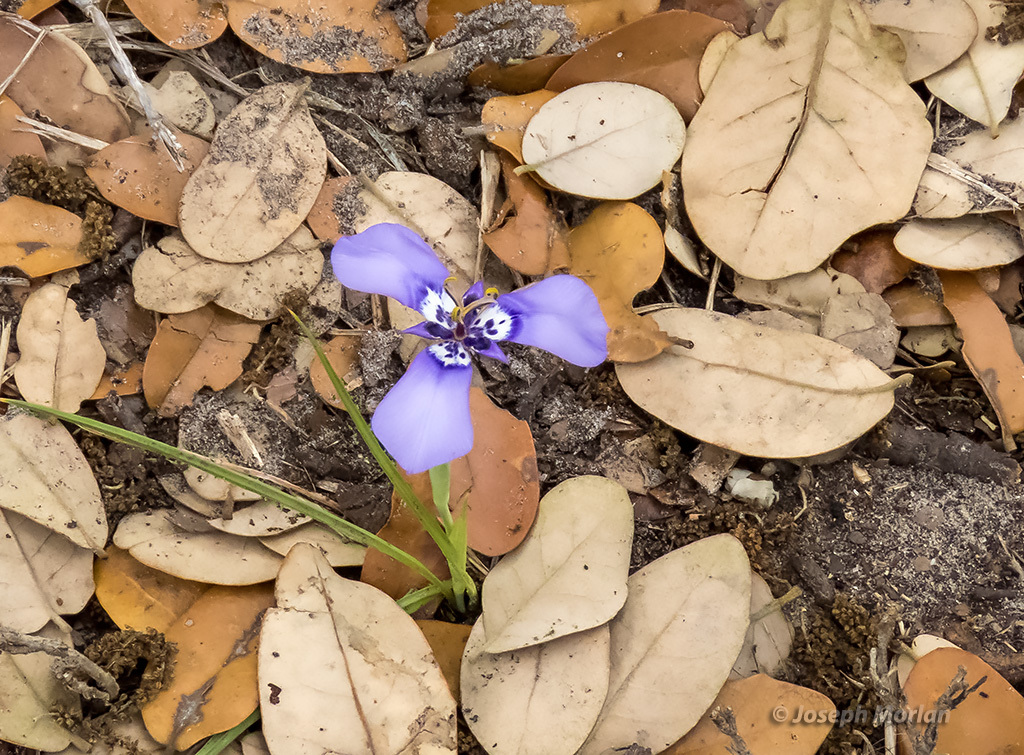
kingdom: Plantae
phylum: Tracheophyta
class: Liliopsida
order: Asparagales
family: Iridaceae
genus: Herbertia
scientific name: Herbertia lahue
